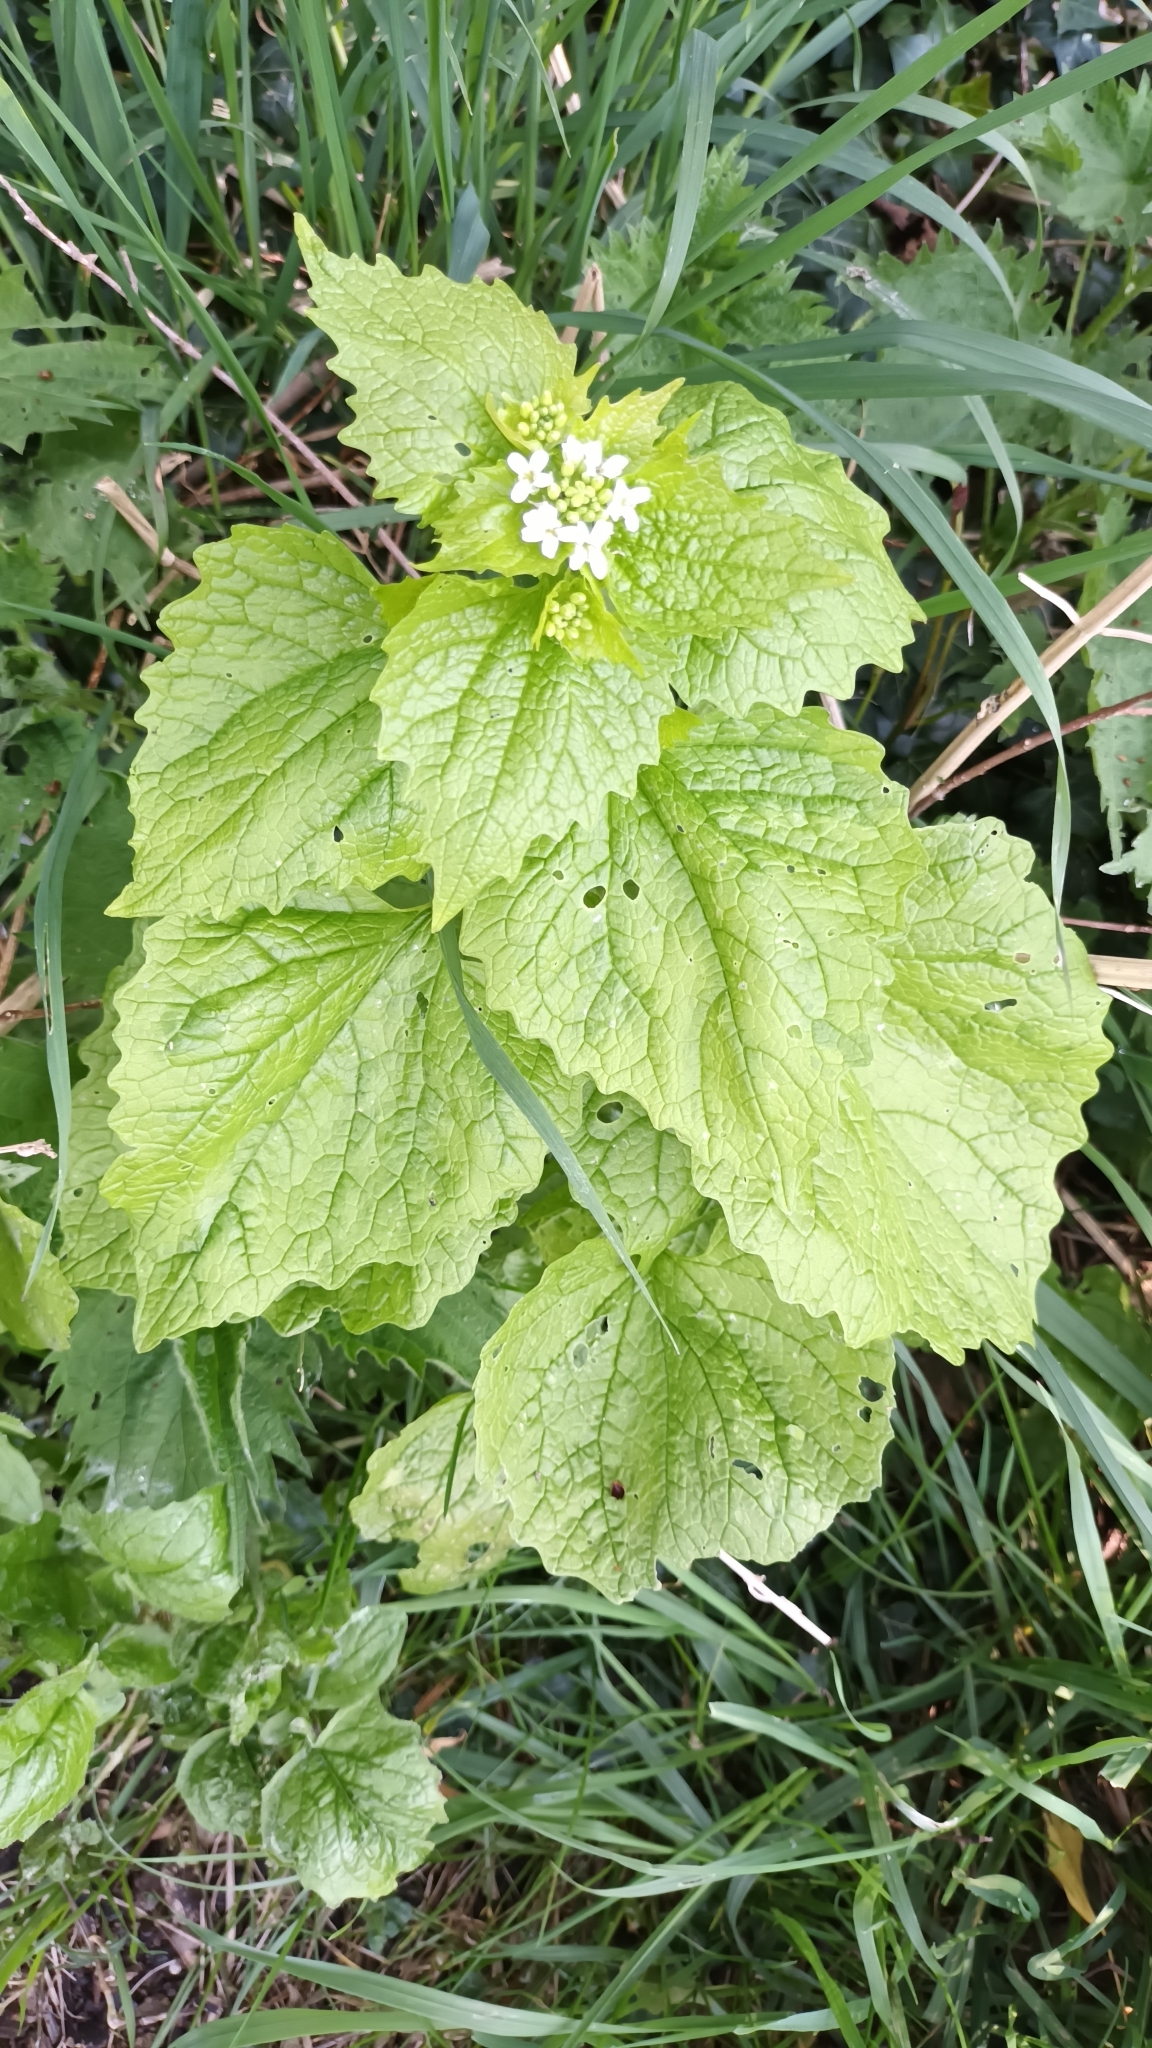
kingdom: Plantae
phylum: Tracheophyta
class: Magnoliopsida
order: Brassicales
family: Brassicaceae
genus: Alliaria
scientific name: Alliaria petiolata
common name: Garlic mustard
